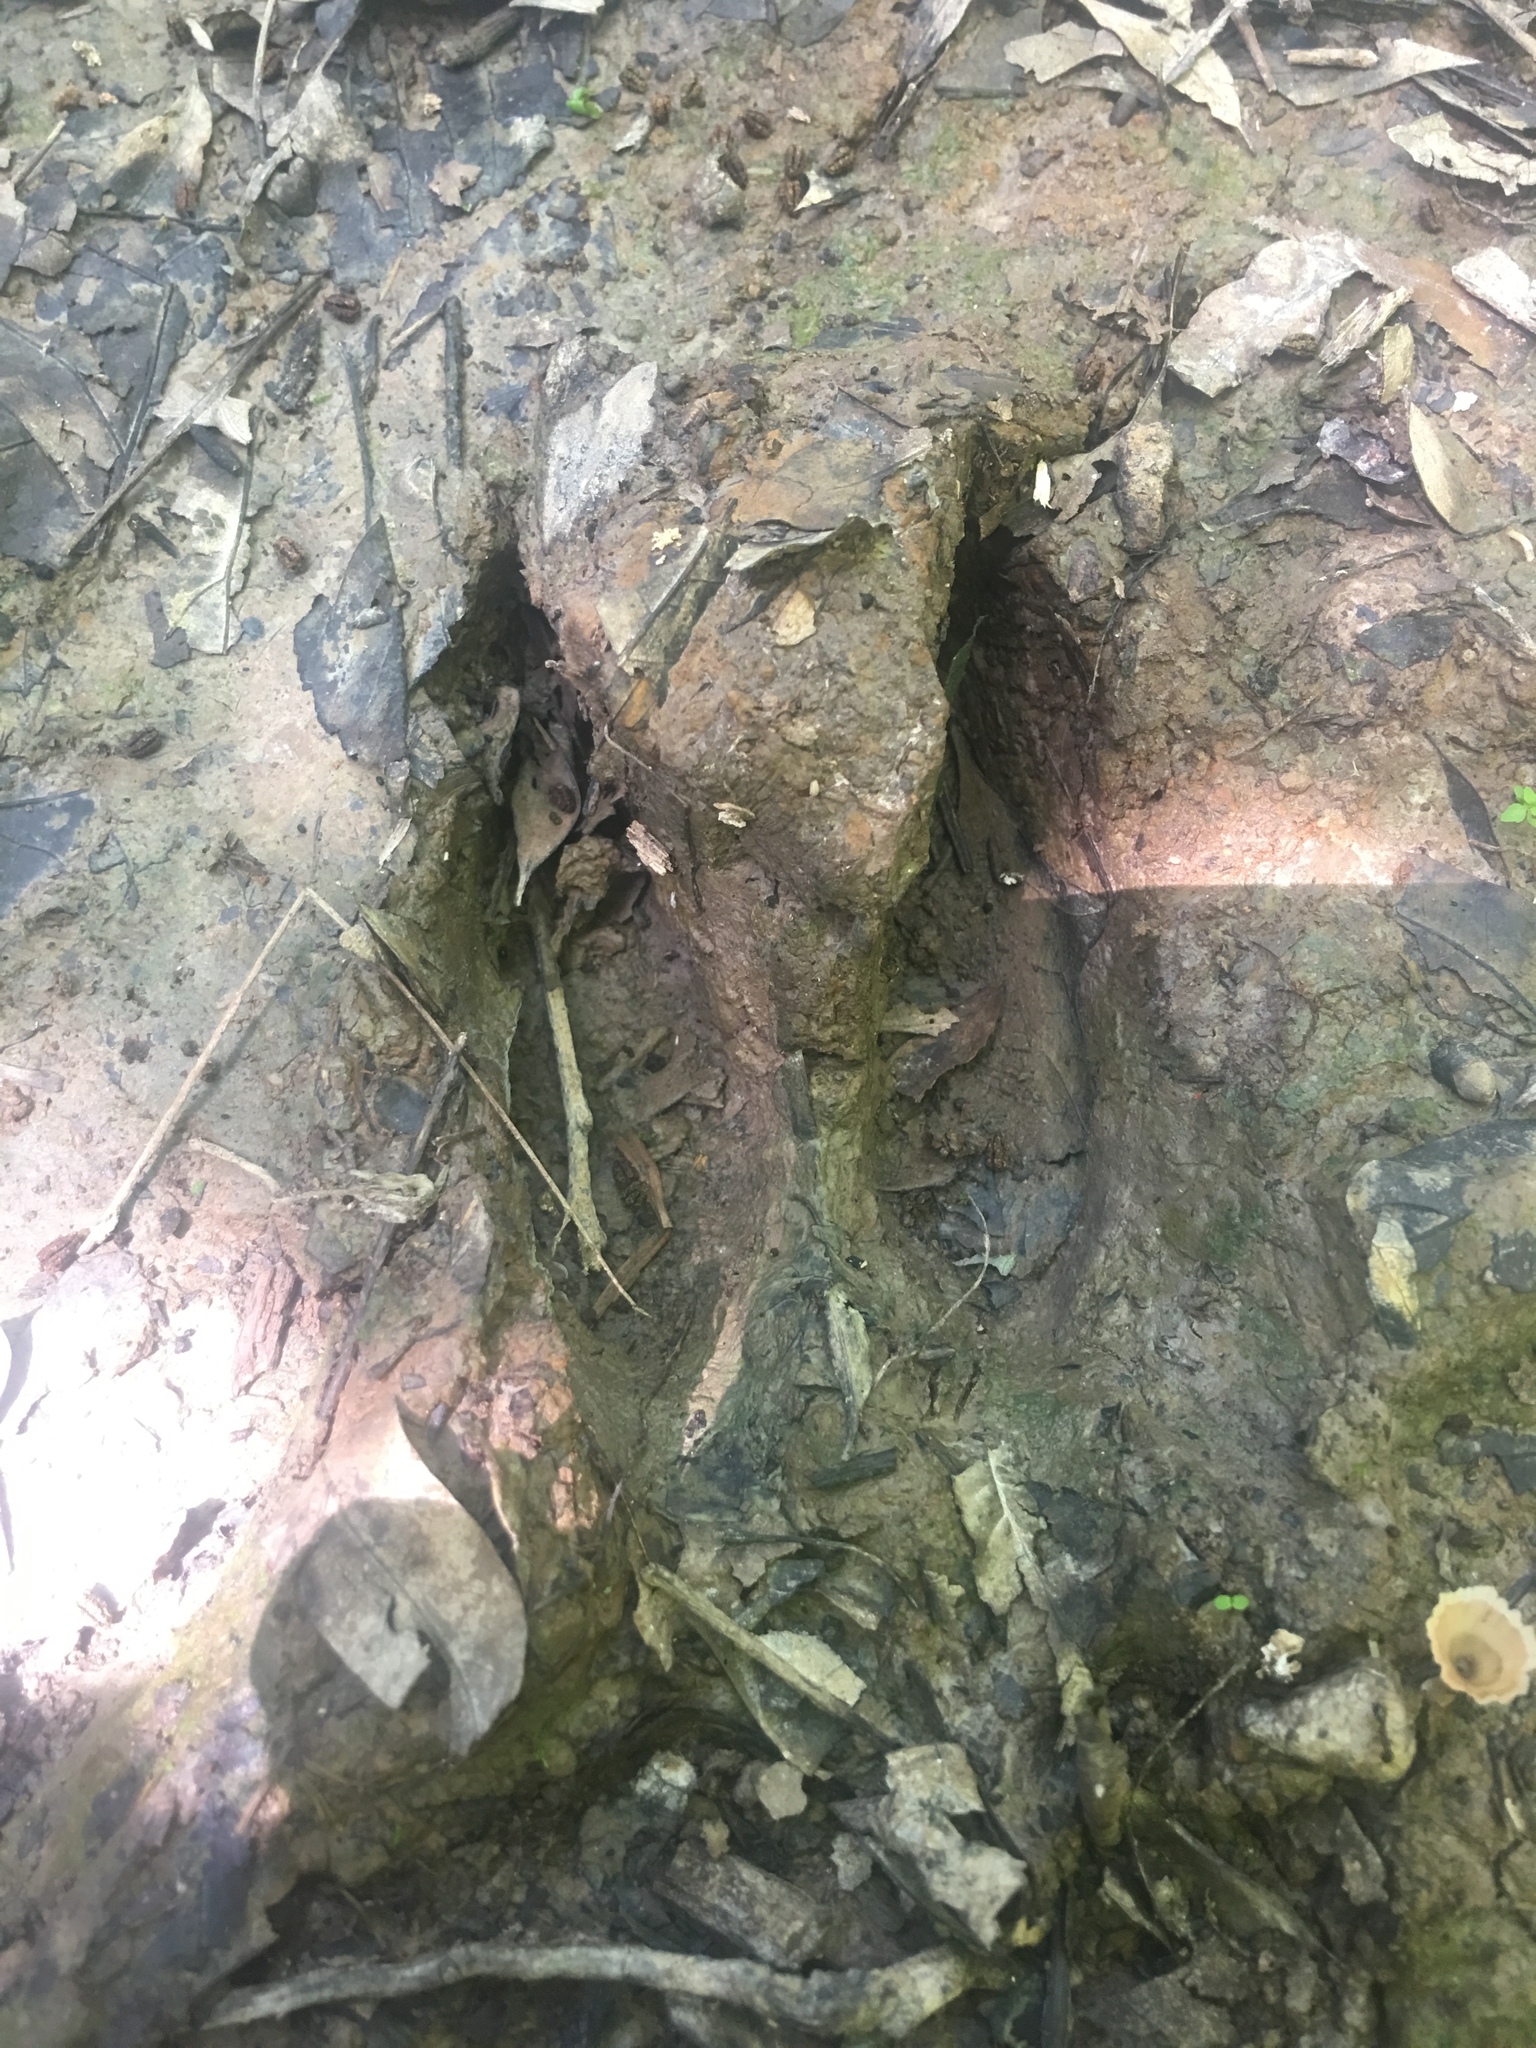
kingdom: Animalia
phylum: Chordata
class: Mammalia
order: Artiodactyla
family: Cervidae
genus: Odocoileus
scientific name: Odocoileus virginianus
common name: White-tailed deer
